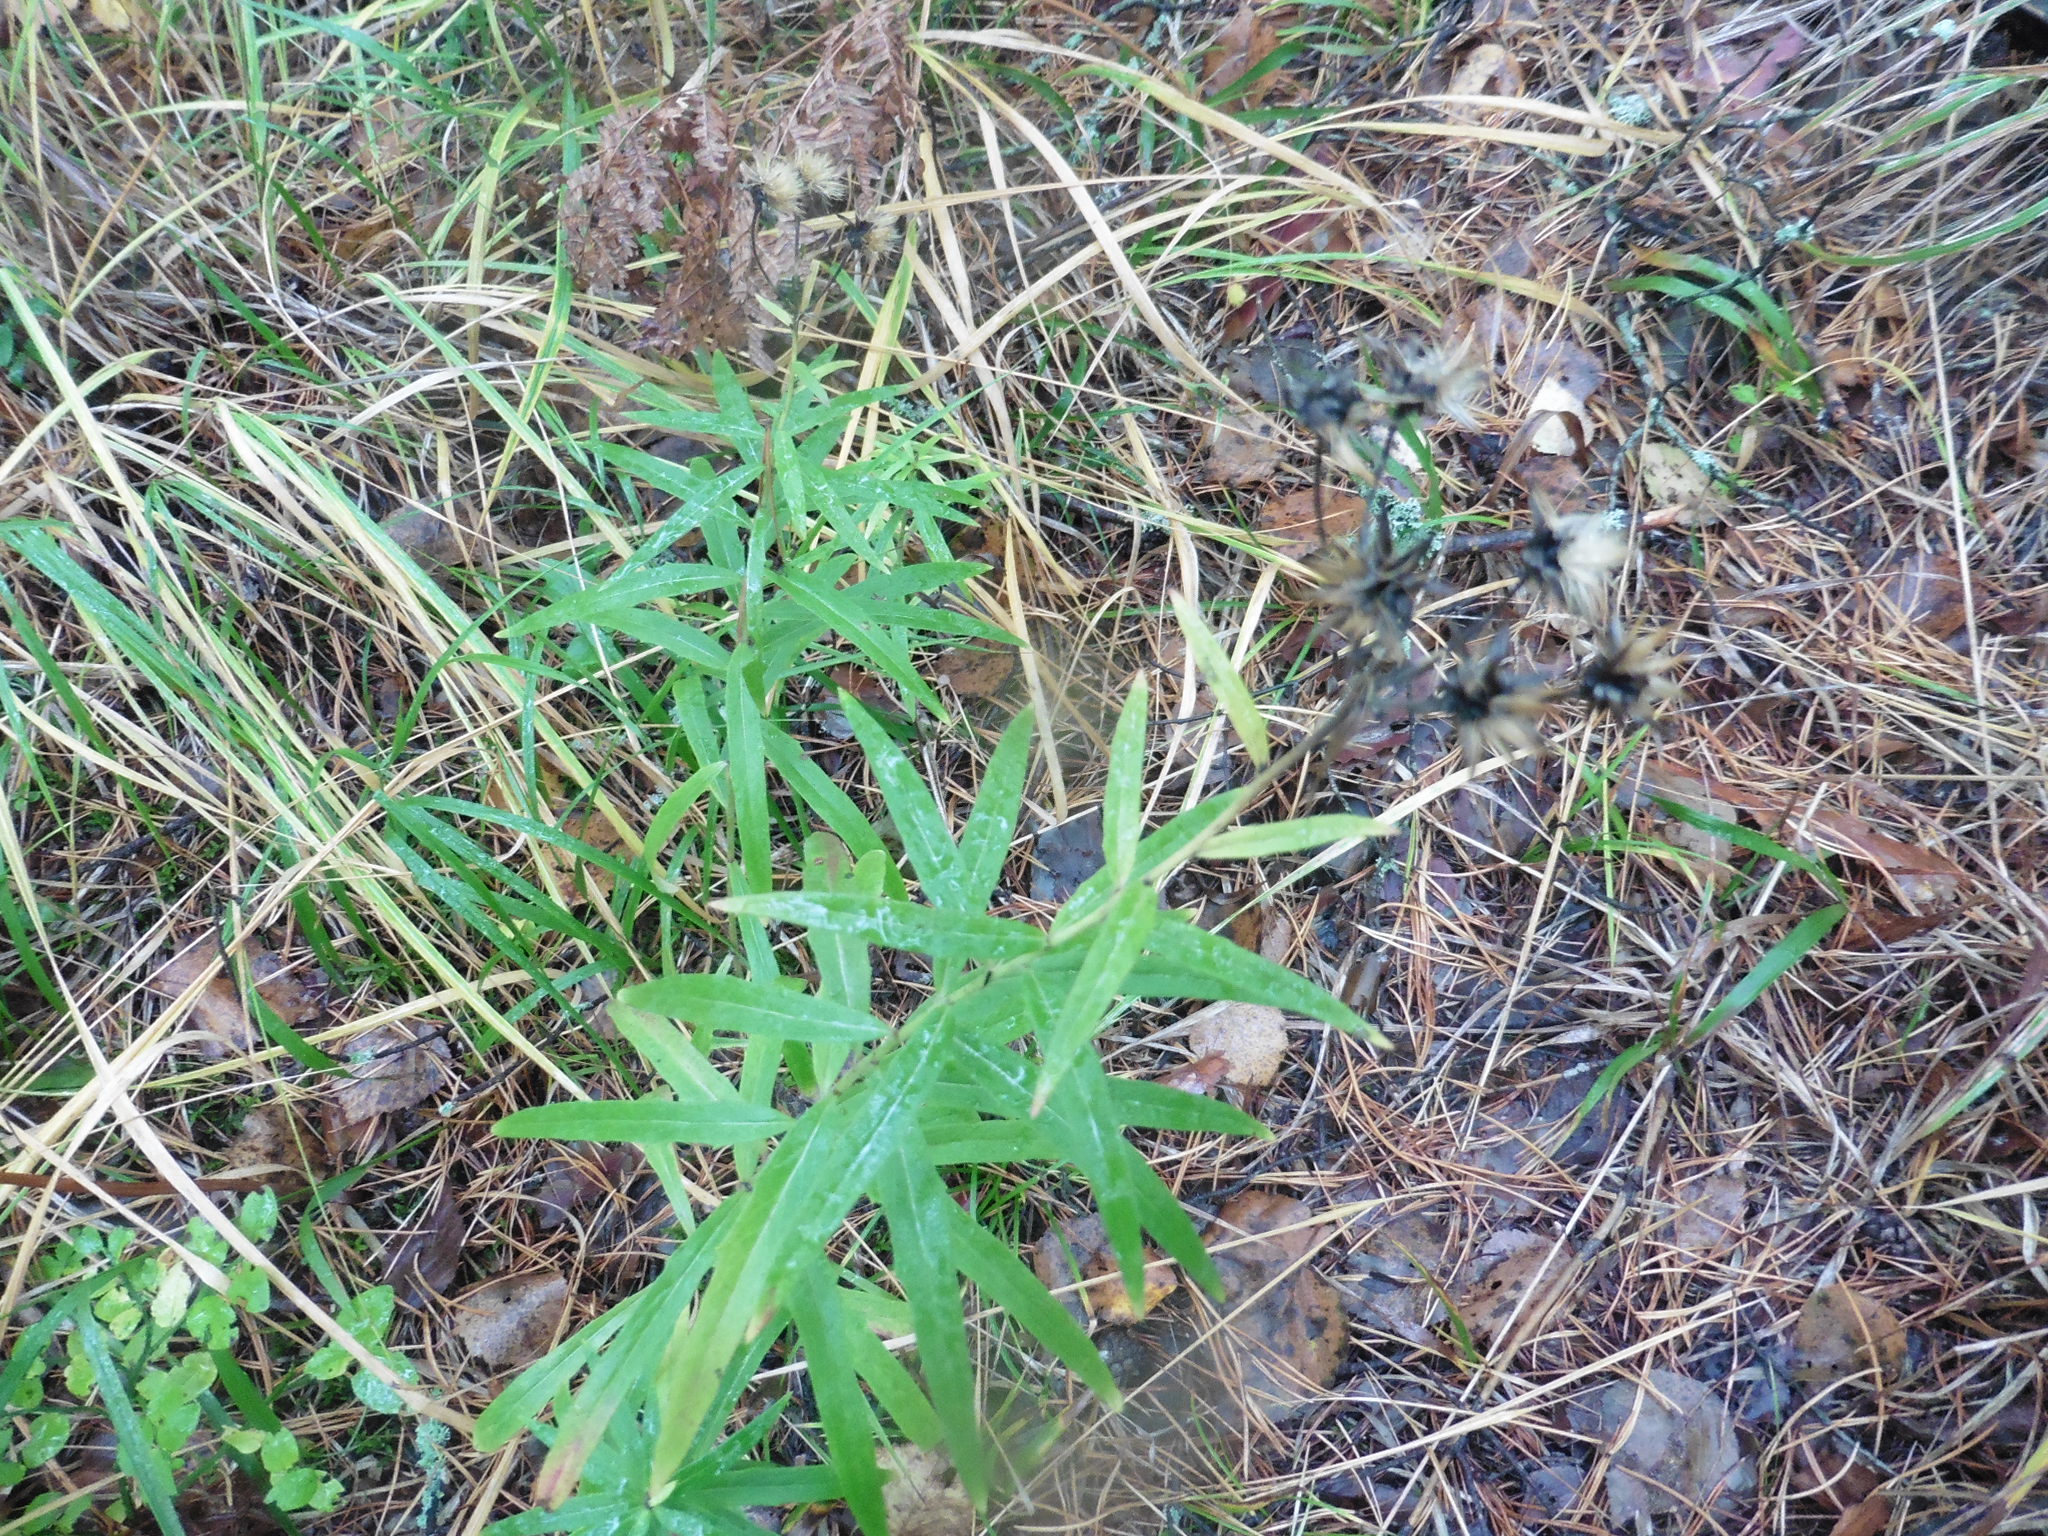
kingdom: Plantae
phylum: Tracheophyta
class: Magnoliopsida
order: Asterales
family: Asteraceae
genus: Hieracium
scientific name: Hieracium umbellatum
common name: Northern hawkweed
